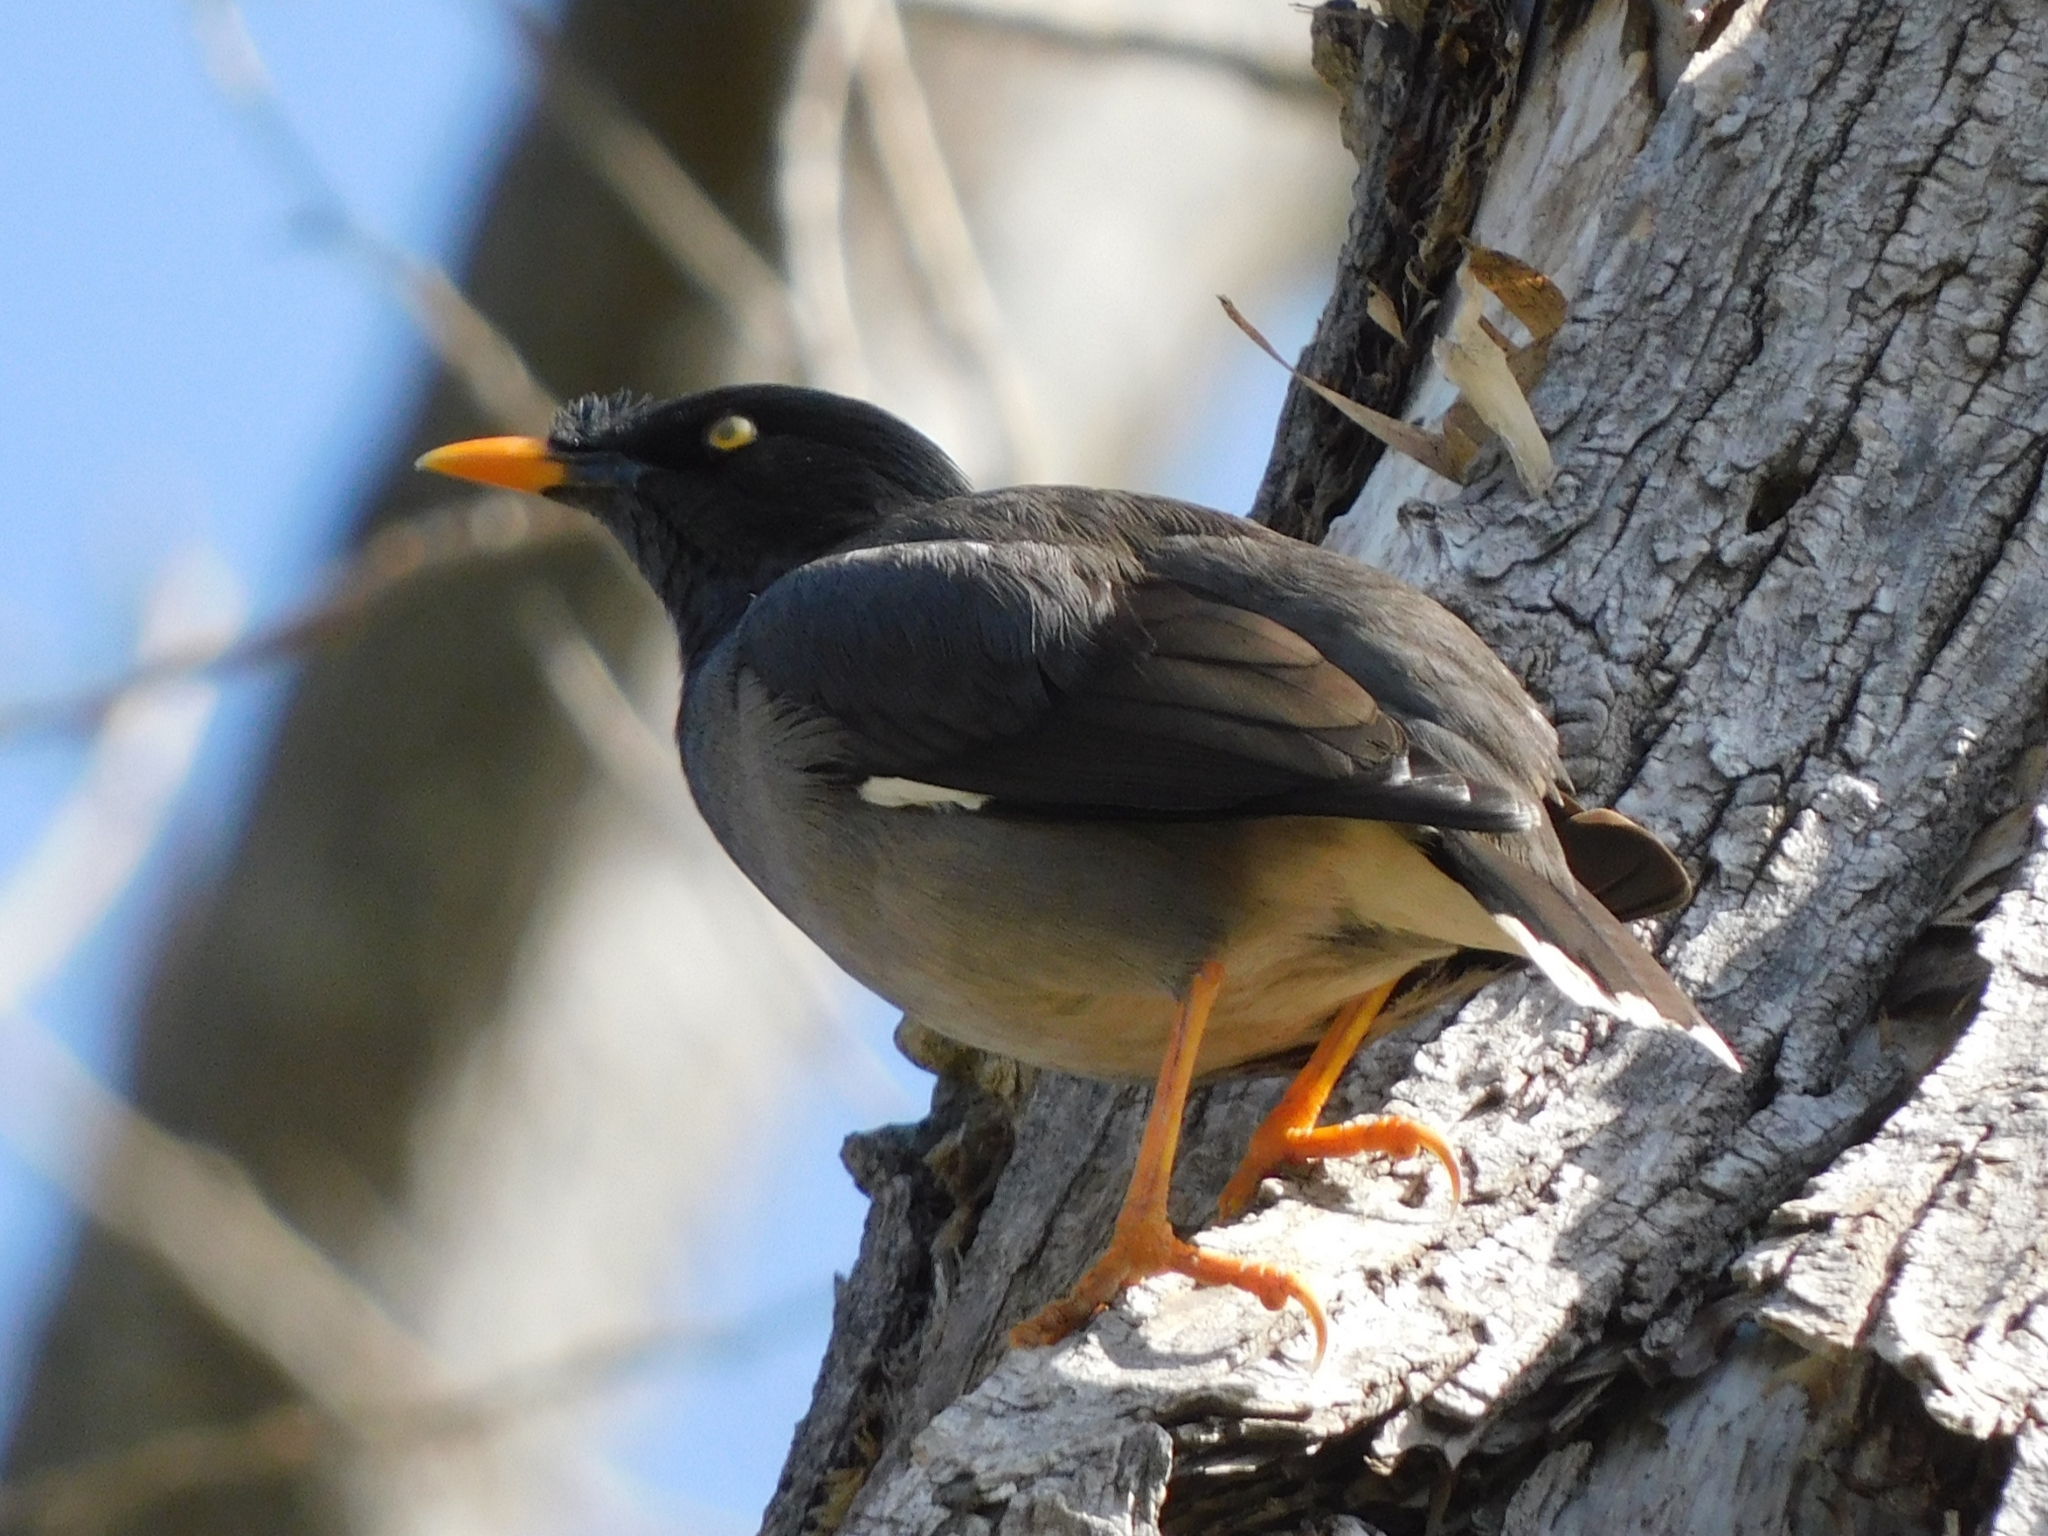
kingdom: Animalia
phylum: Chordata
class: Aves
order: Passeriformes
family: Sturnidae
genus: Acridotheres
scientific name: Acridotheres fuscus
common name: Jungle myna
